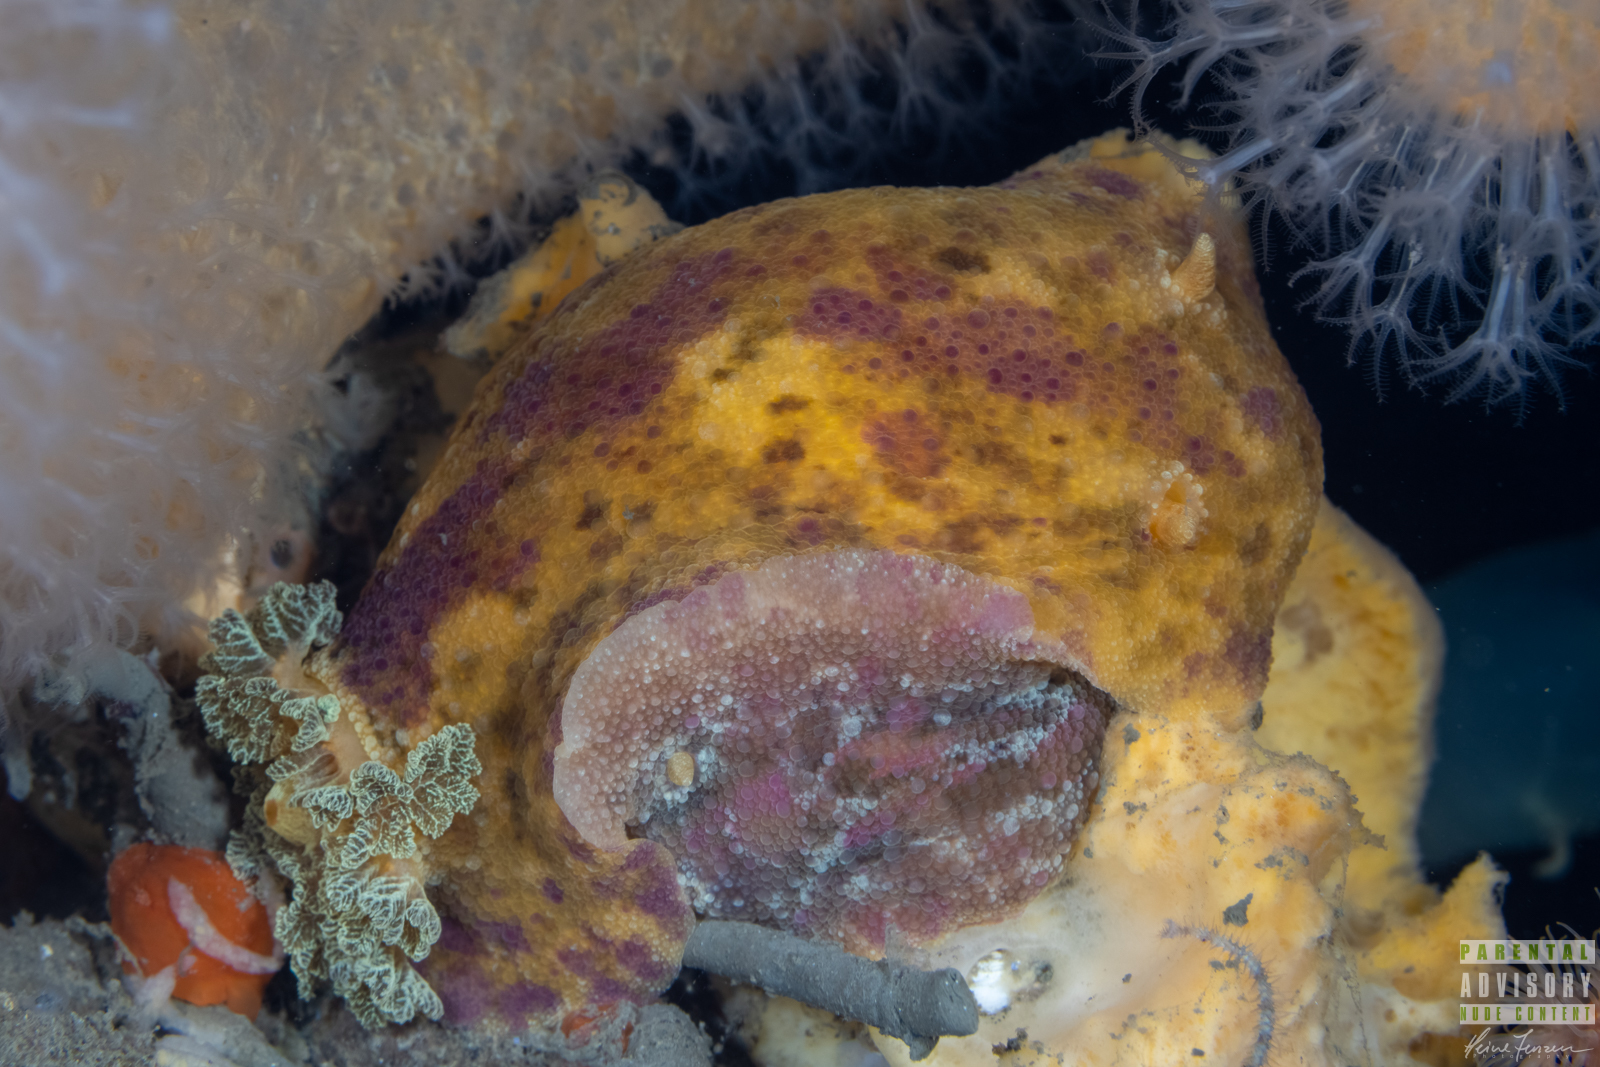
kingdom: Animalia
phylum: Mollusca
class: Gastropoda
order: Nudibranchia
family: Dorididae
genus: Doris
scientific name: Doris pseudoargus
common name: Sea lemon
